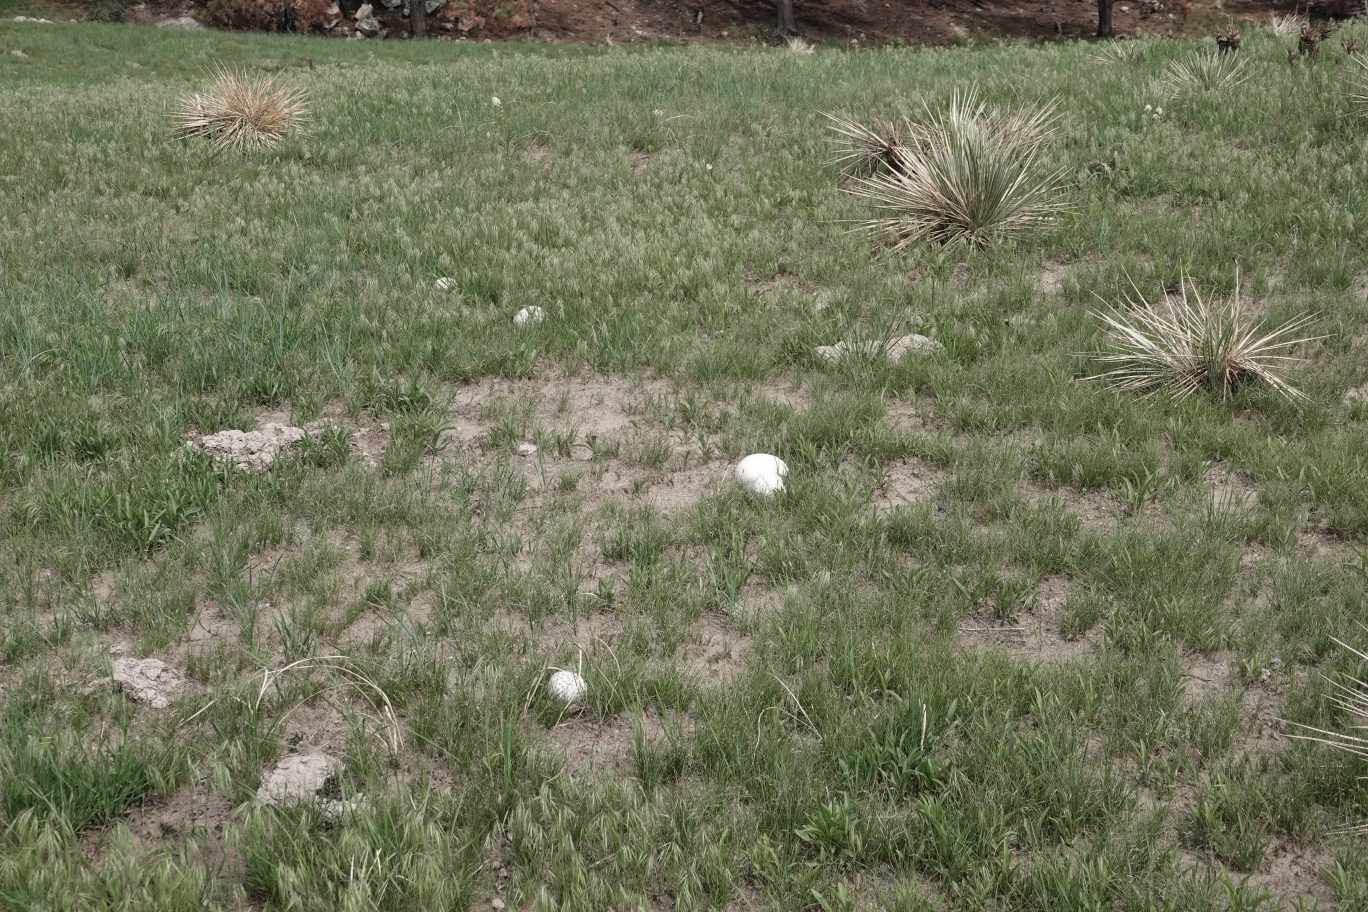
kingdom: Fungi
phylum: Basidiomycota
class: Agaricomycetes
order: Agaricales
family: Lycoperdaceae
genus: Calvatia
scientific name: Calvatia booniana
